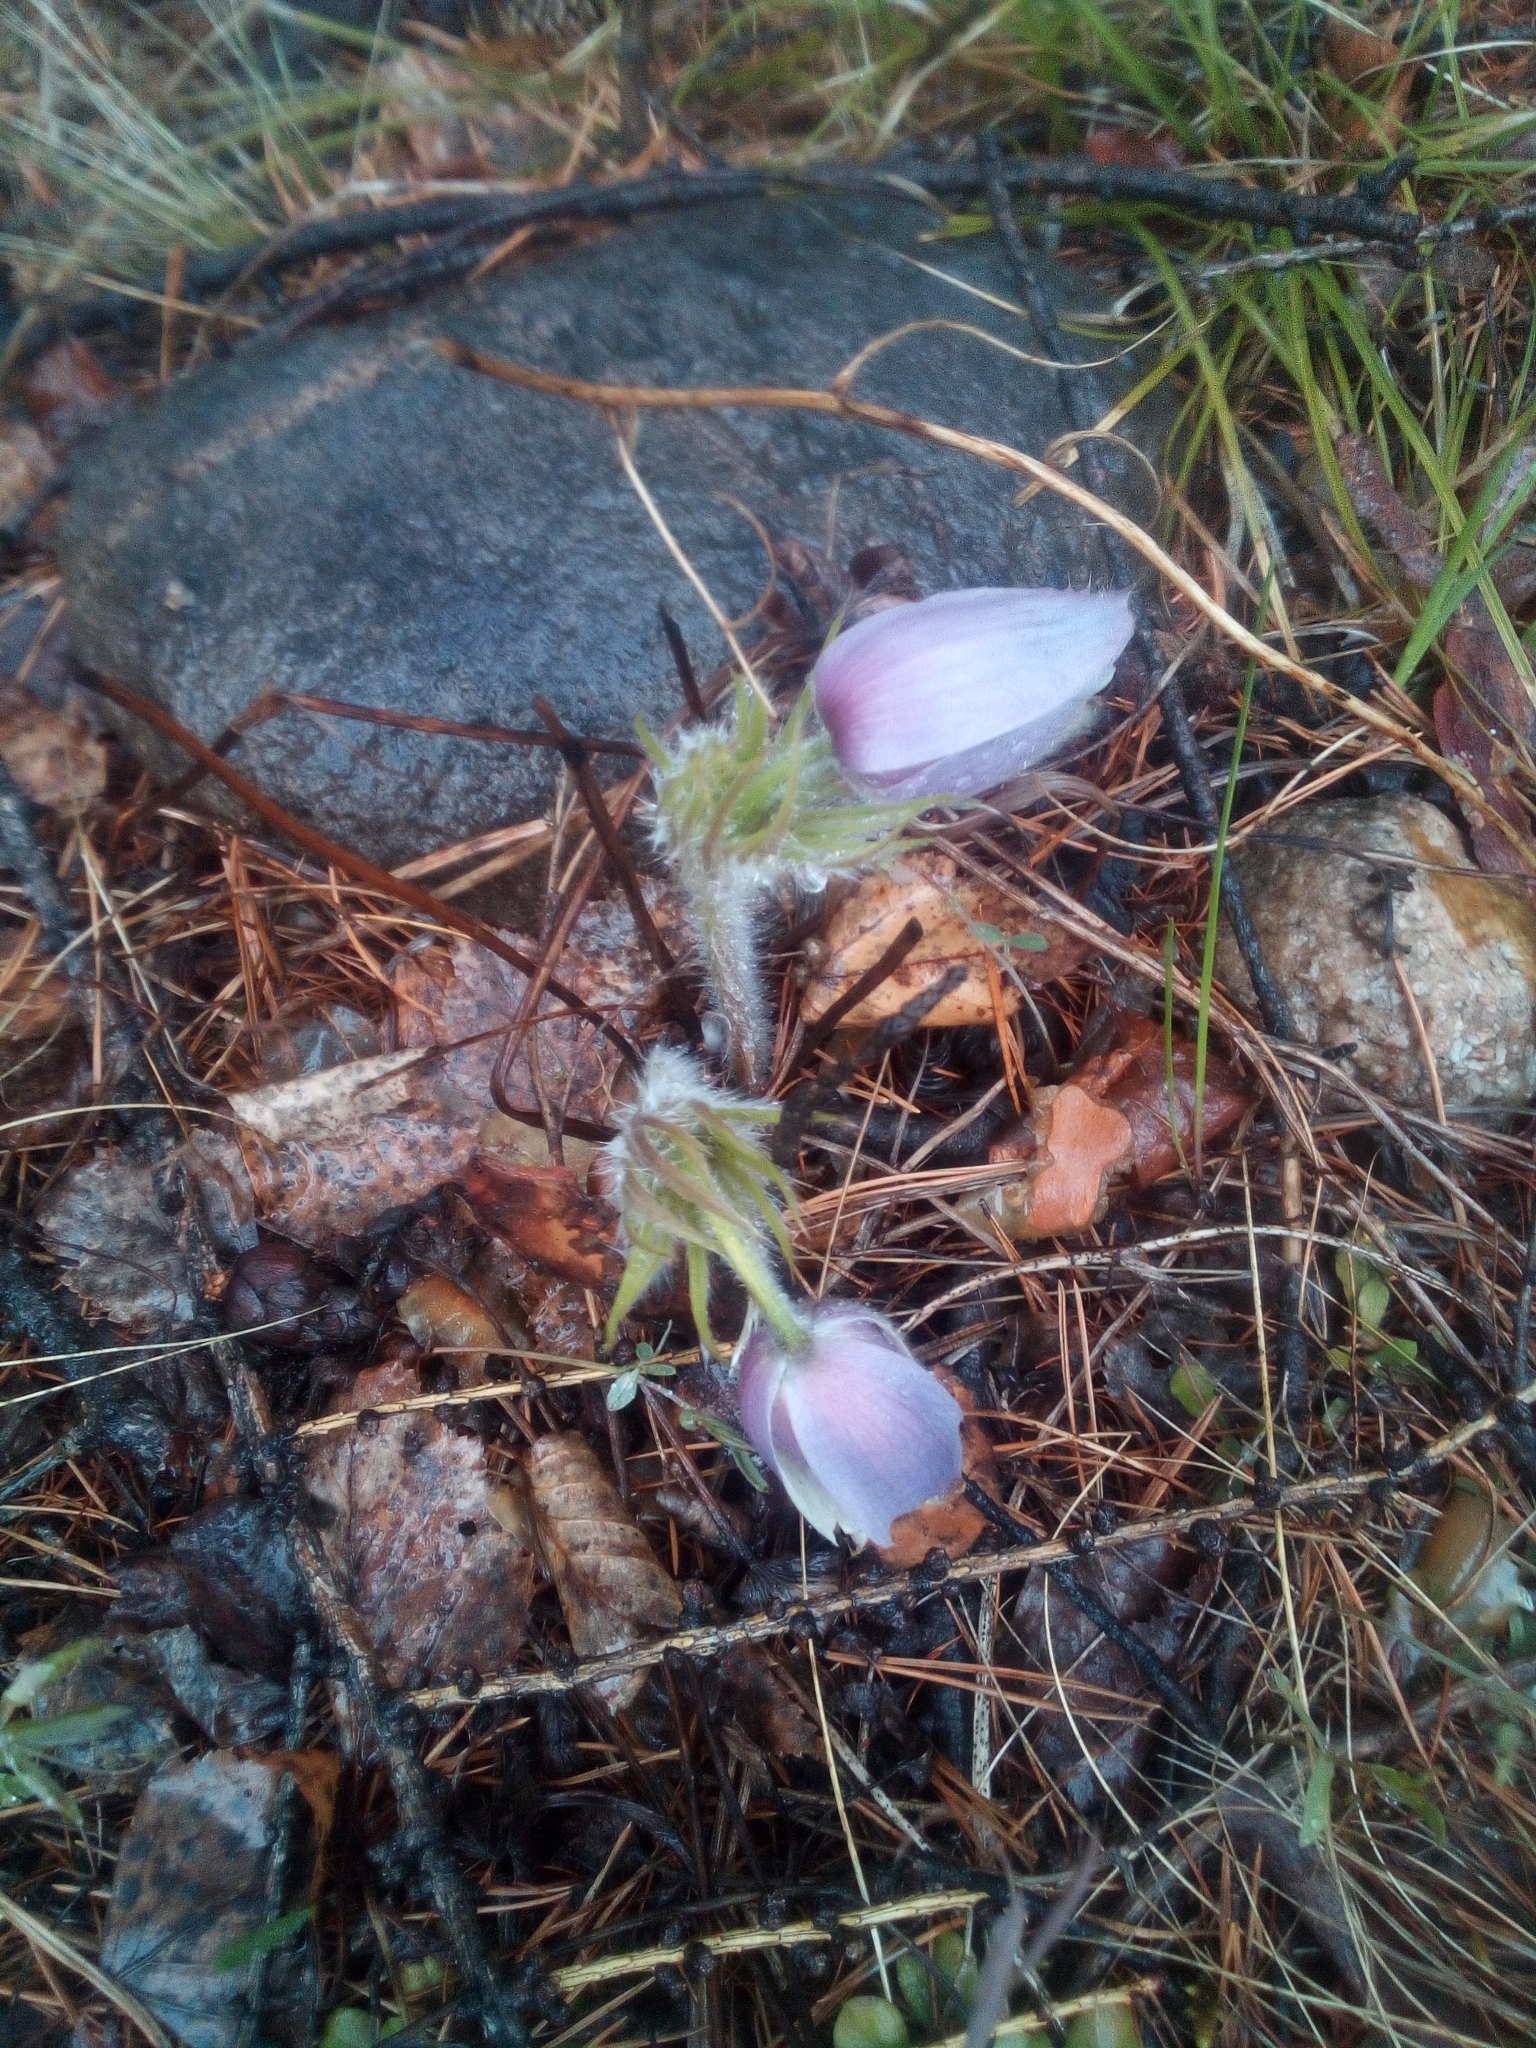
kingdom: Plantae
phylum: Tracheophyta
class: Magnoliopsida
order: Ranunculales
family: Ranunculaceae
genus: Pulsatilla
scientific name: Pulsatilla patens
